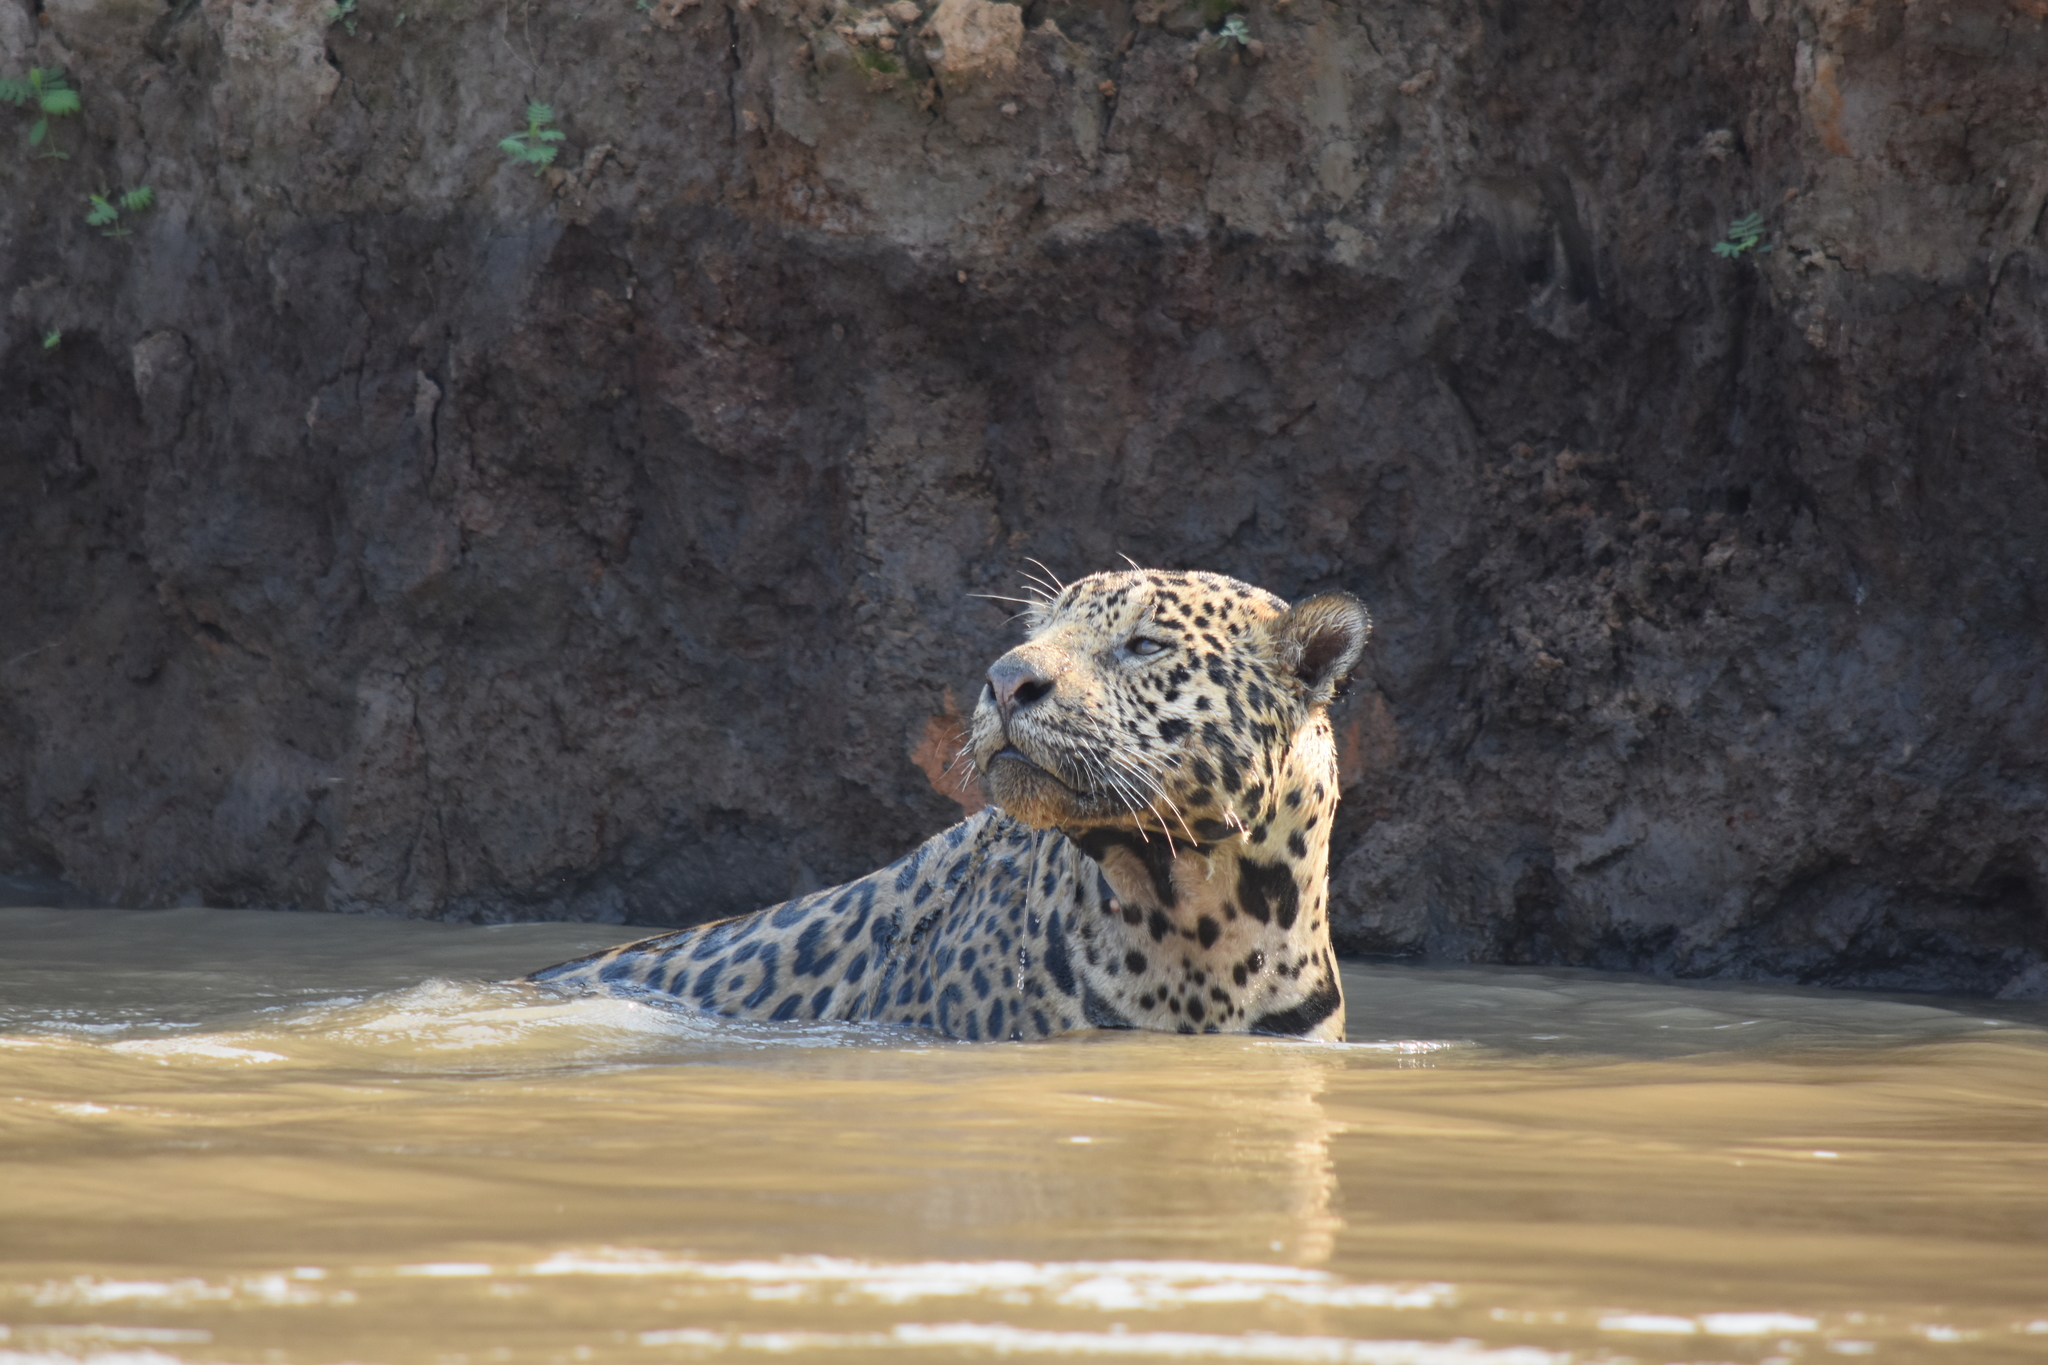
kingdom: Animalia
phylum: Chordata
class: Mammalia
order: Carnivora
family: Felidae
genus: Panthera
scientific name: Panthera onca
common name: Jaguar
